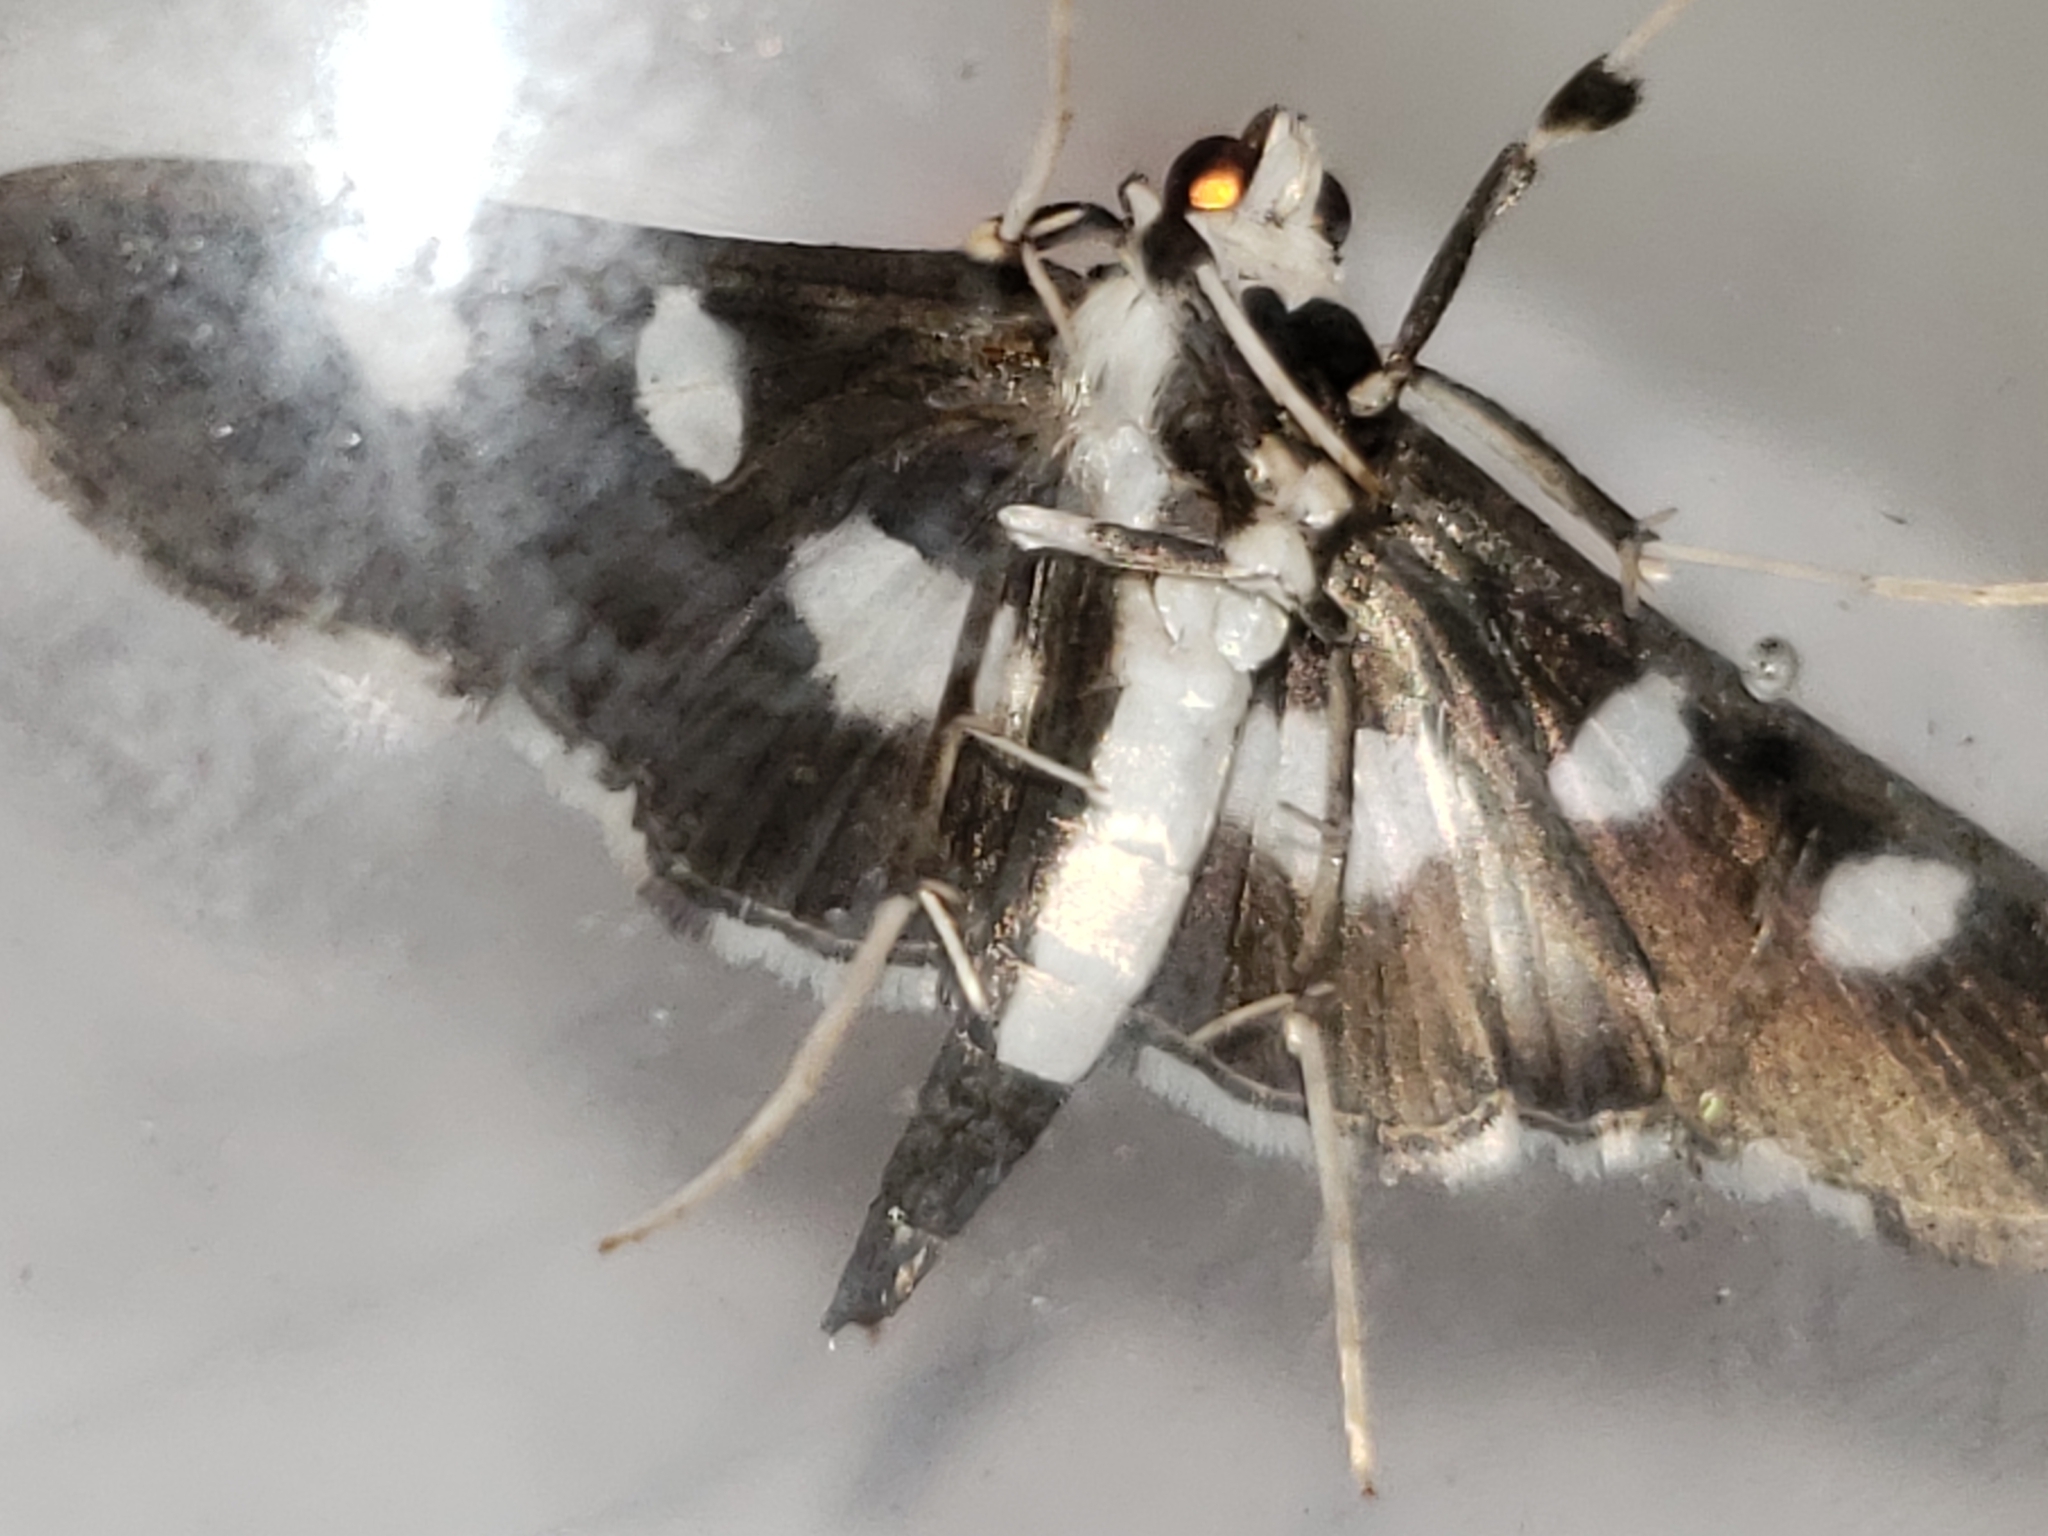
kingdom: Animalia
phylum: Arthropoda
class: Insecta
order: Lepidoptera
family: Crambidae
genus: Desmia
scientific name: Desmia funeralis
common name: Grape leaf folder moth
